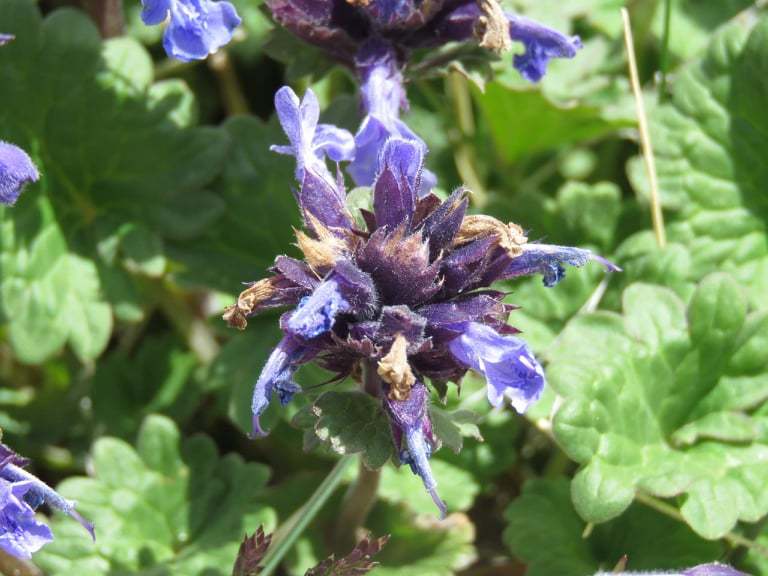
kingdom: Plantae
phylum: Tracheophyta
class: Magnoliopsida
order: Lamiales
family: Lamiaceae
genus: Dracocephalum
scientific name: Dracocephalum imberbe
